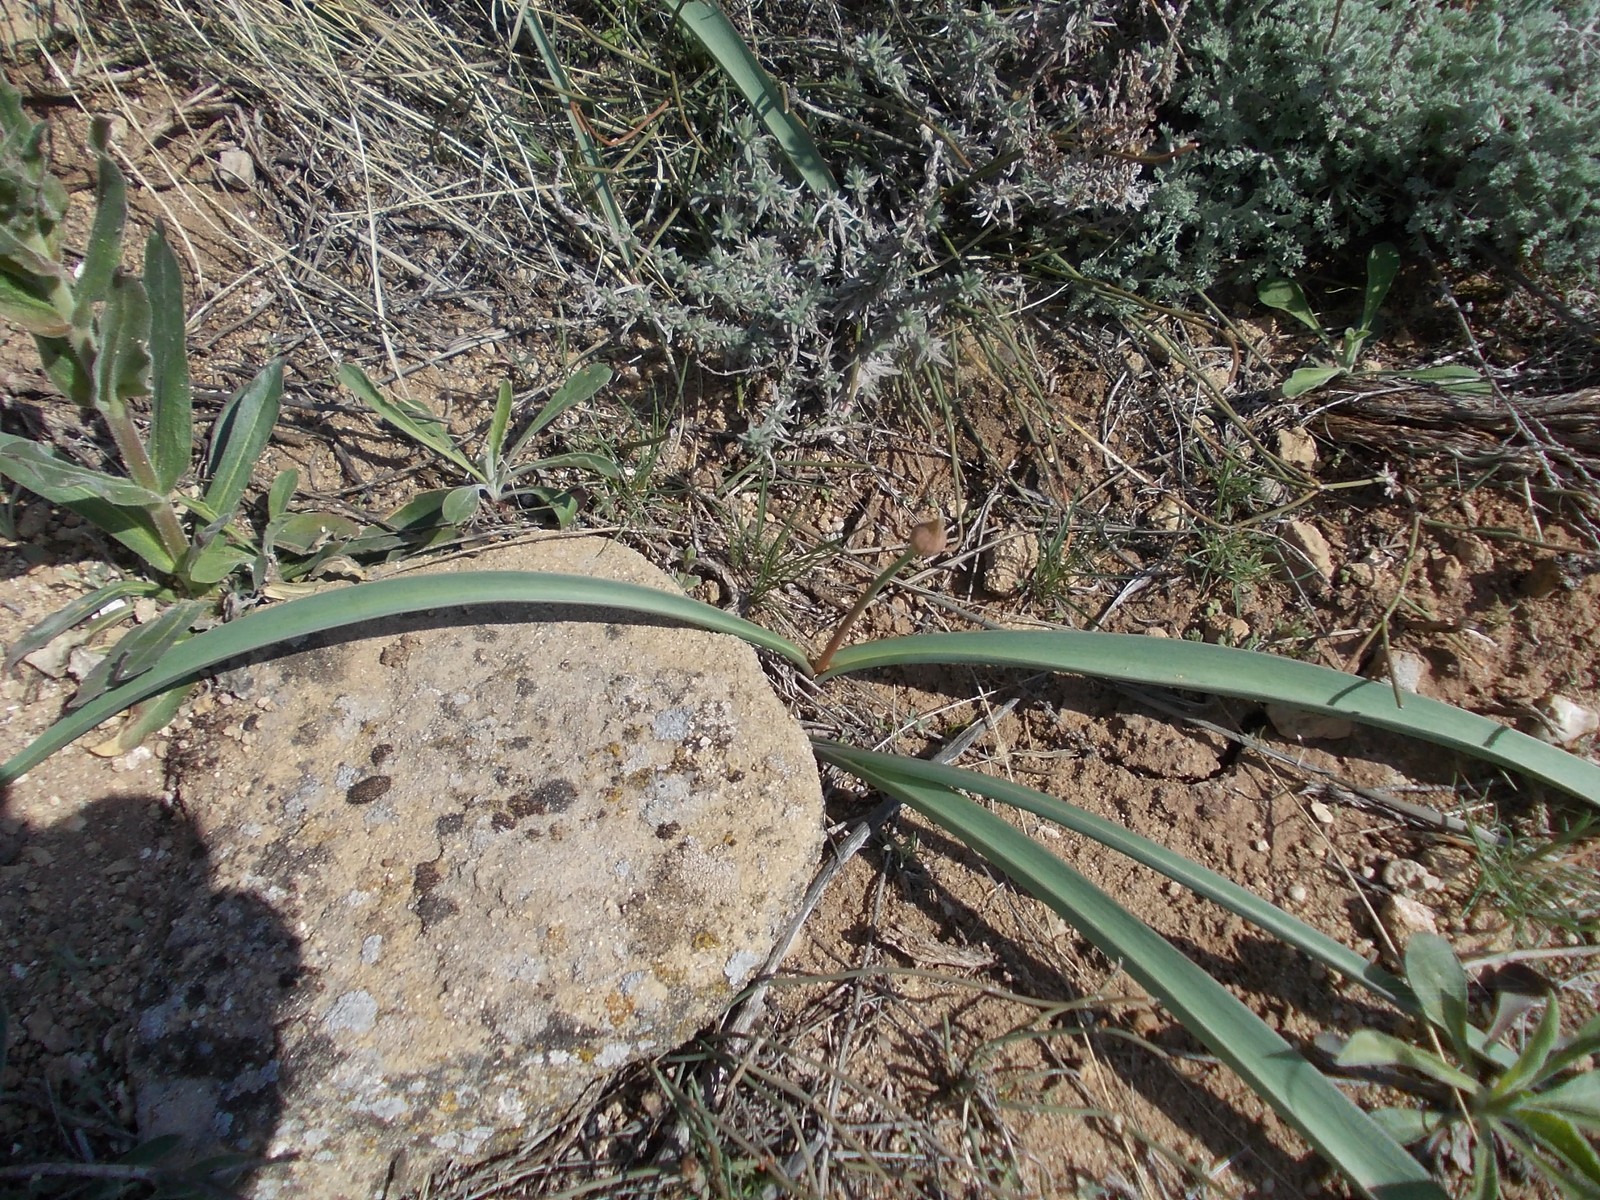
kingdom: Plantae
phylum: Tracheophyta
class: Liliopsida
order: Asparagales
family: Amaryllidaceae
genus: Allium
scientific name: Allium tulipifolium
